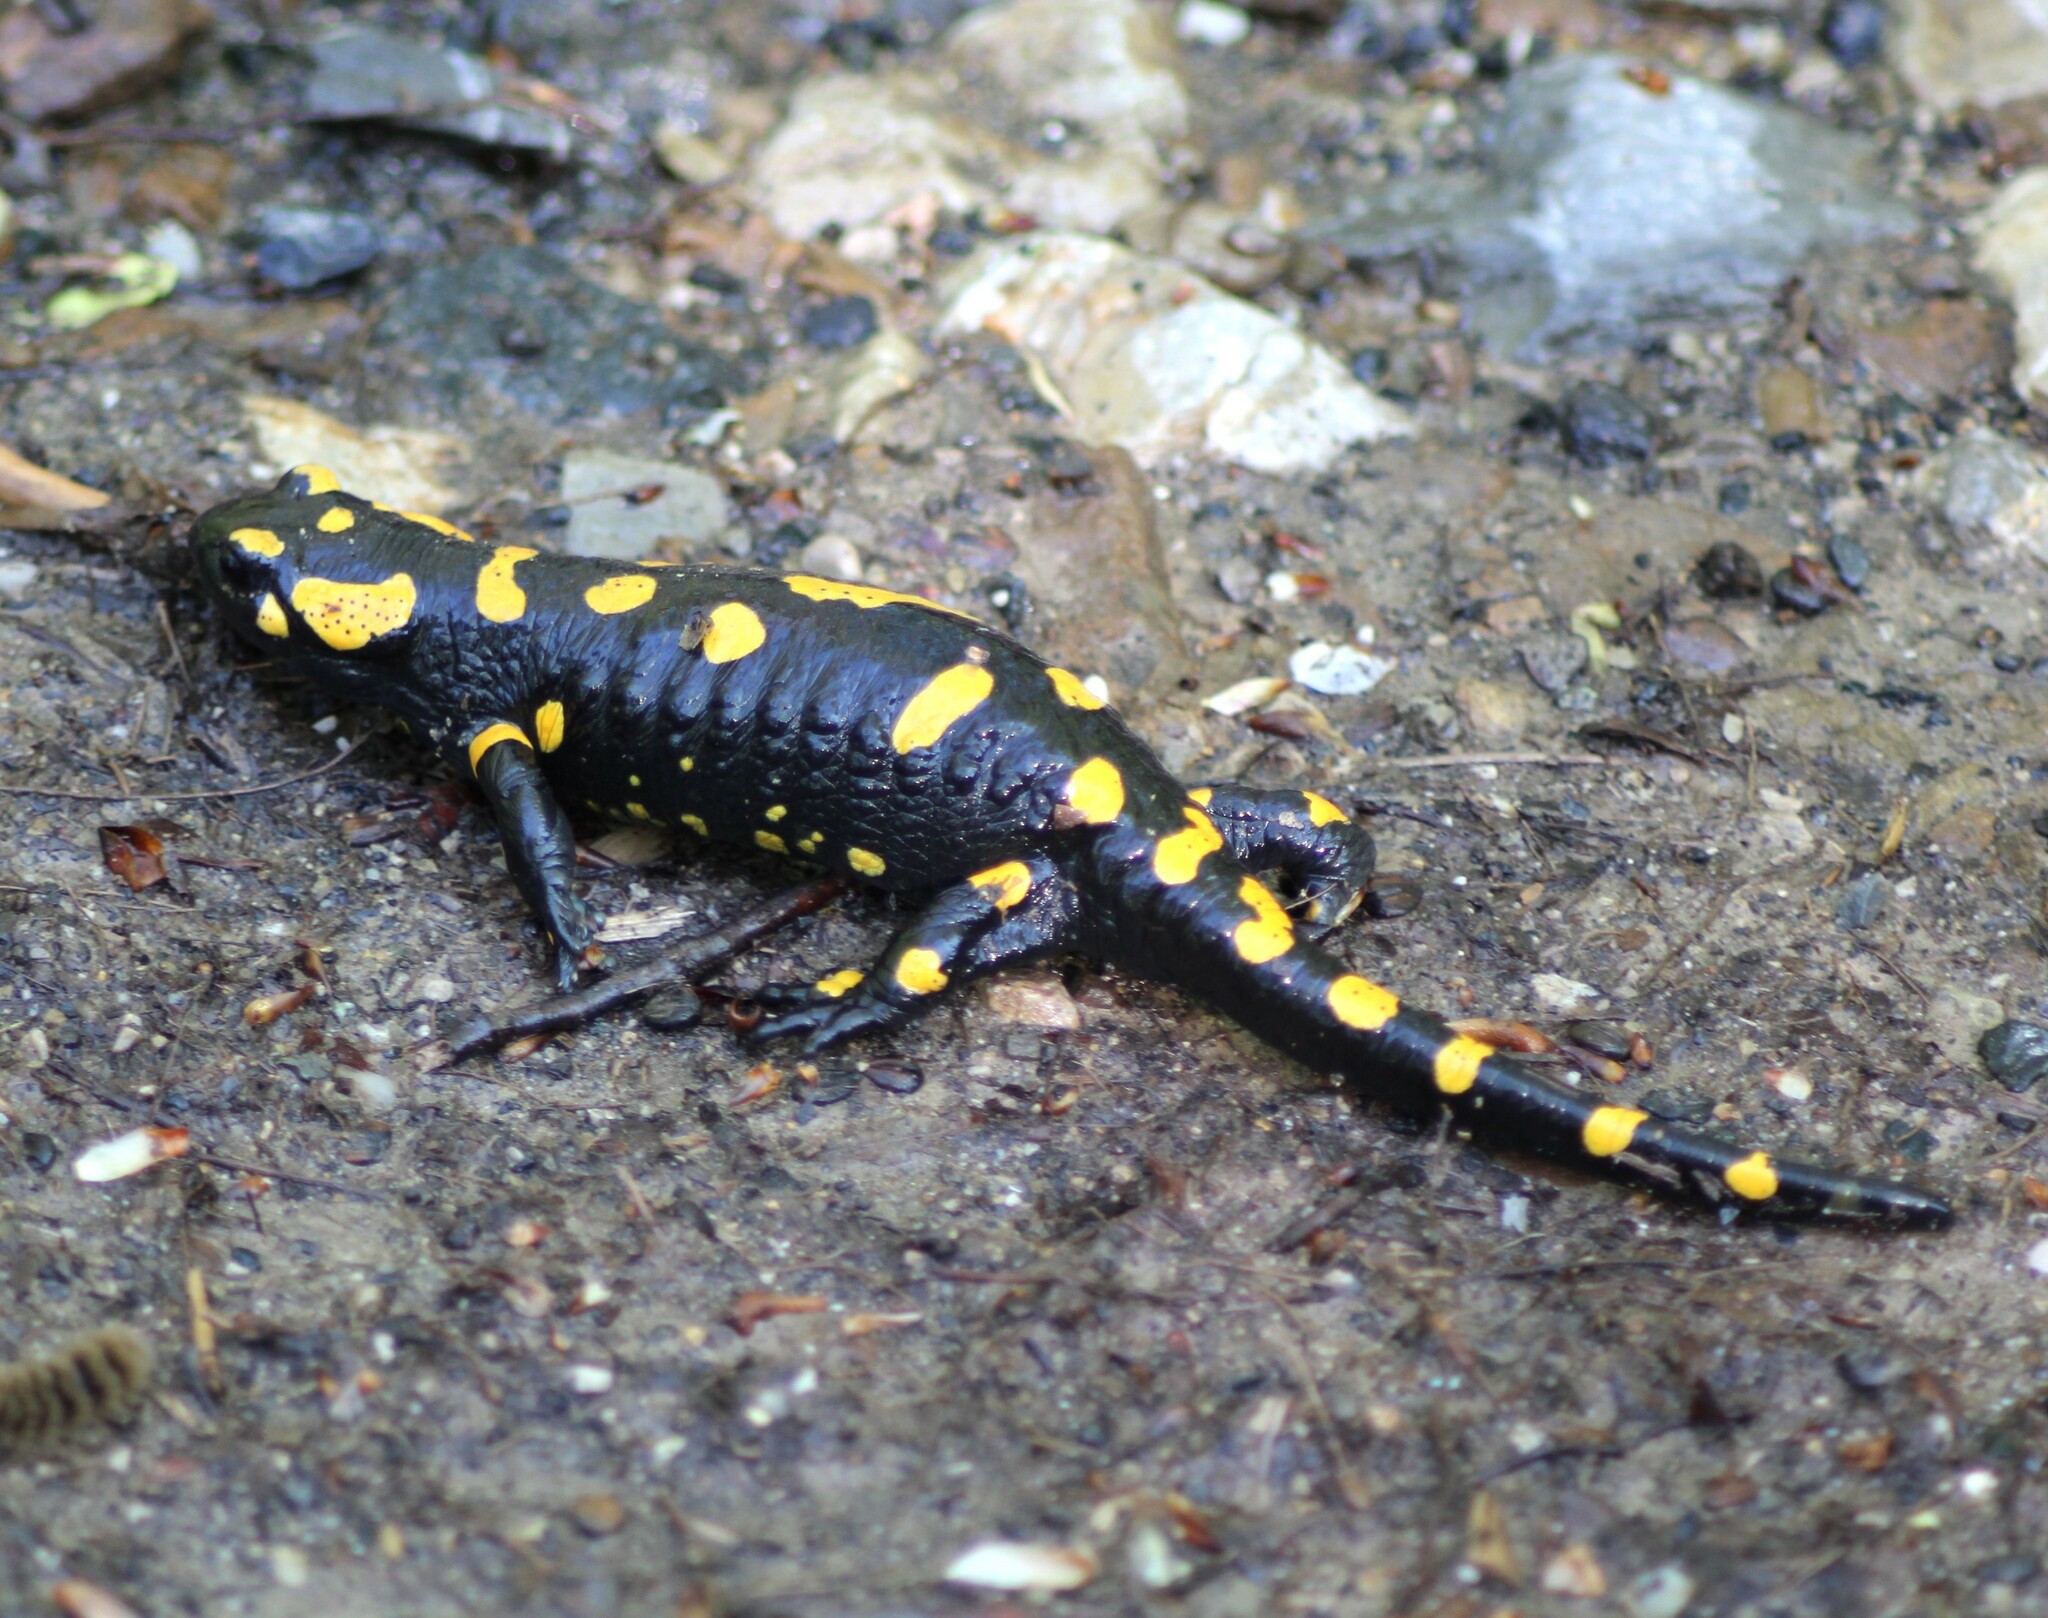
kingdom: Animalia
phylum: Chordata
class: Amphibia
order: Caudata
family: Salamandridae
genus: Salamandra
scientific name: Salamandra salamandra
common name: Fire salamander
